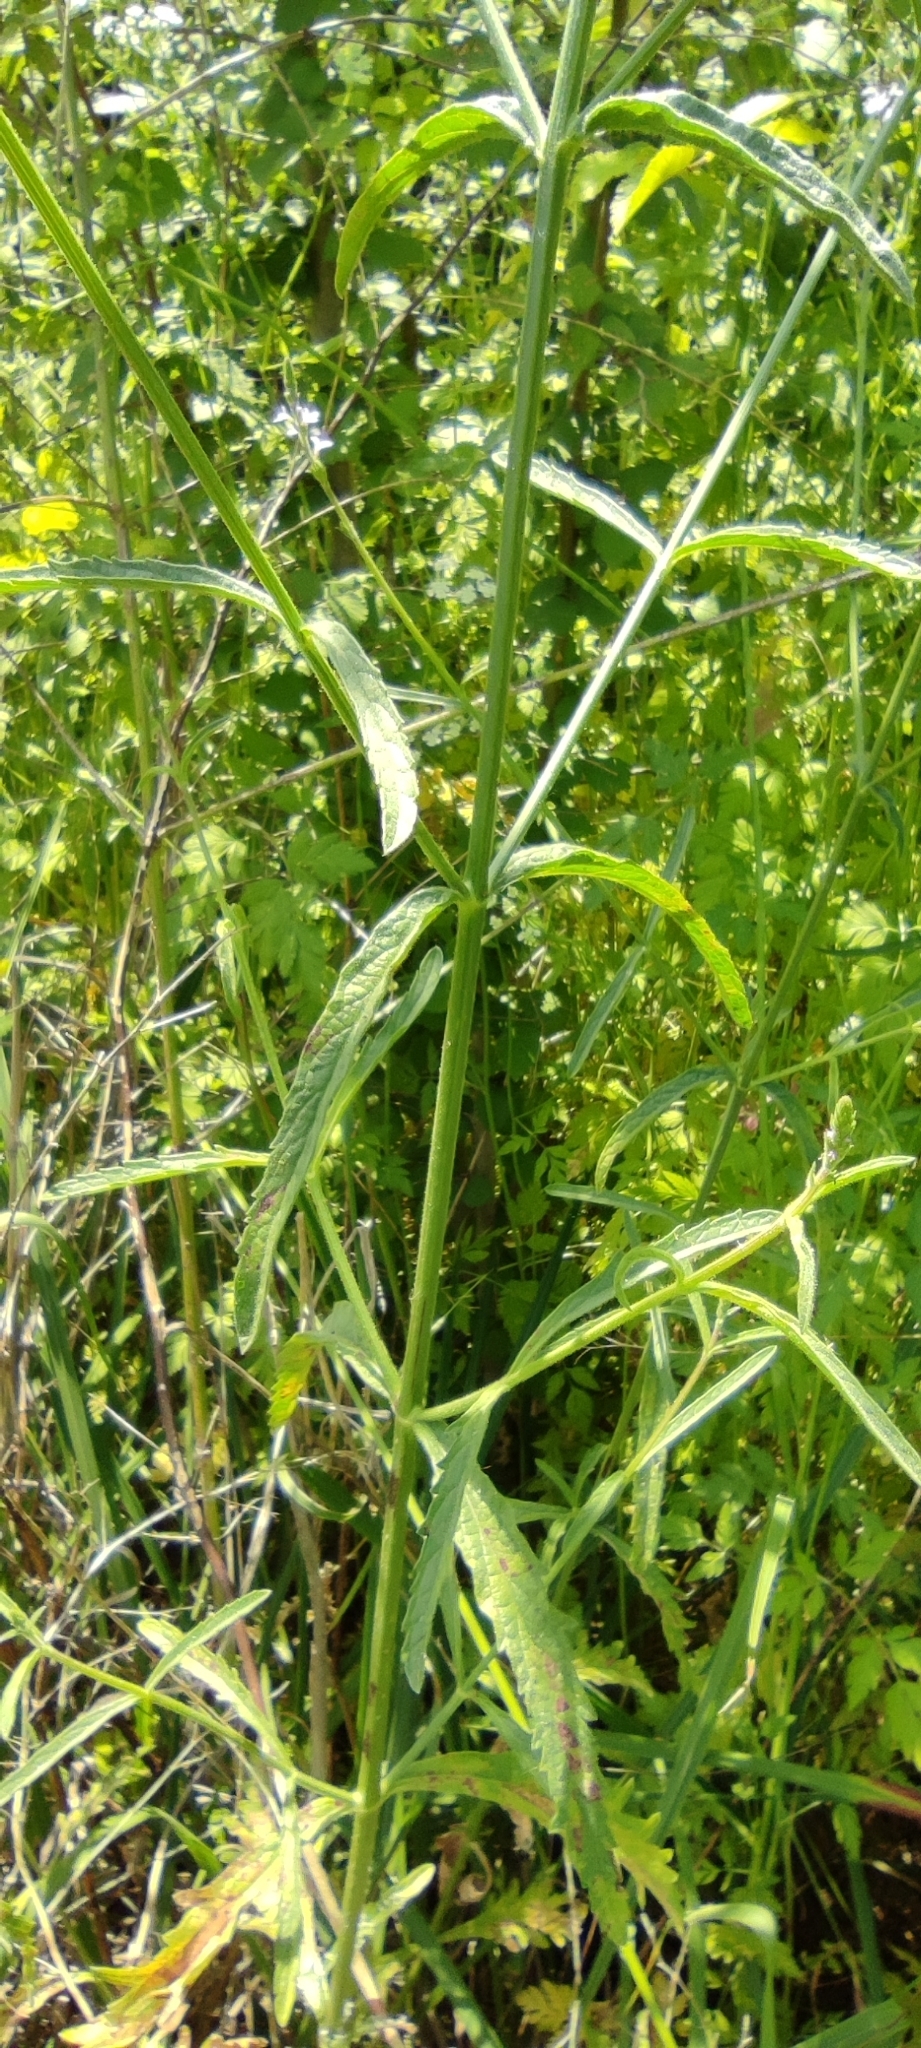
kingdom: Plantae
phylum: Tracheophyta
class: Magnoliopsida
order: Lamiales
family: Verbenaceae
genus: Verbena
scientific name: Verbena officinalis
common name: Vervain
